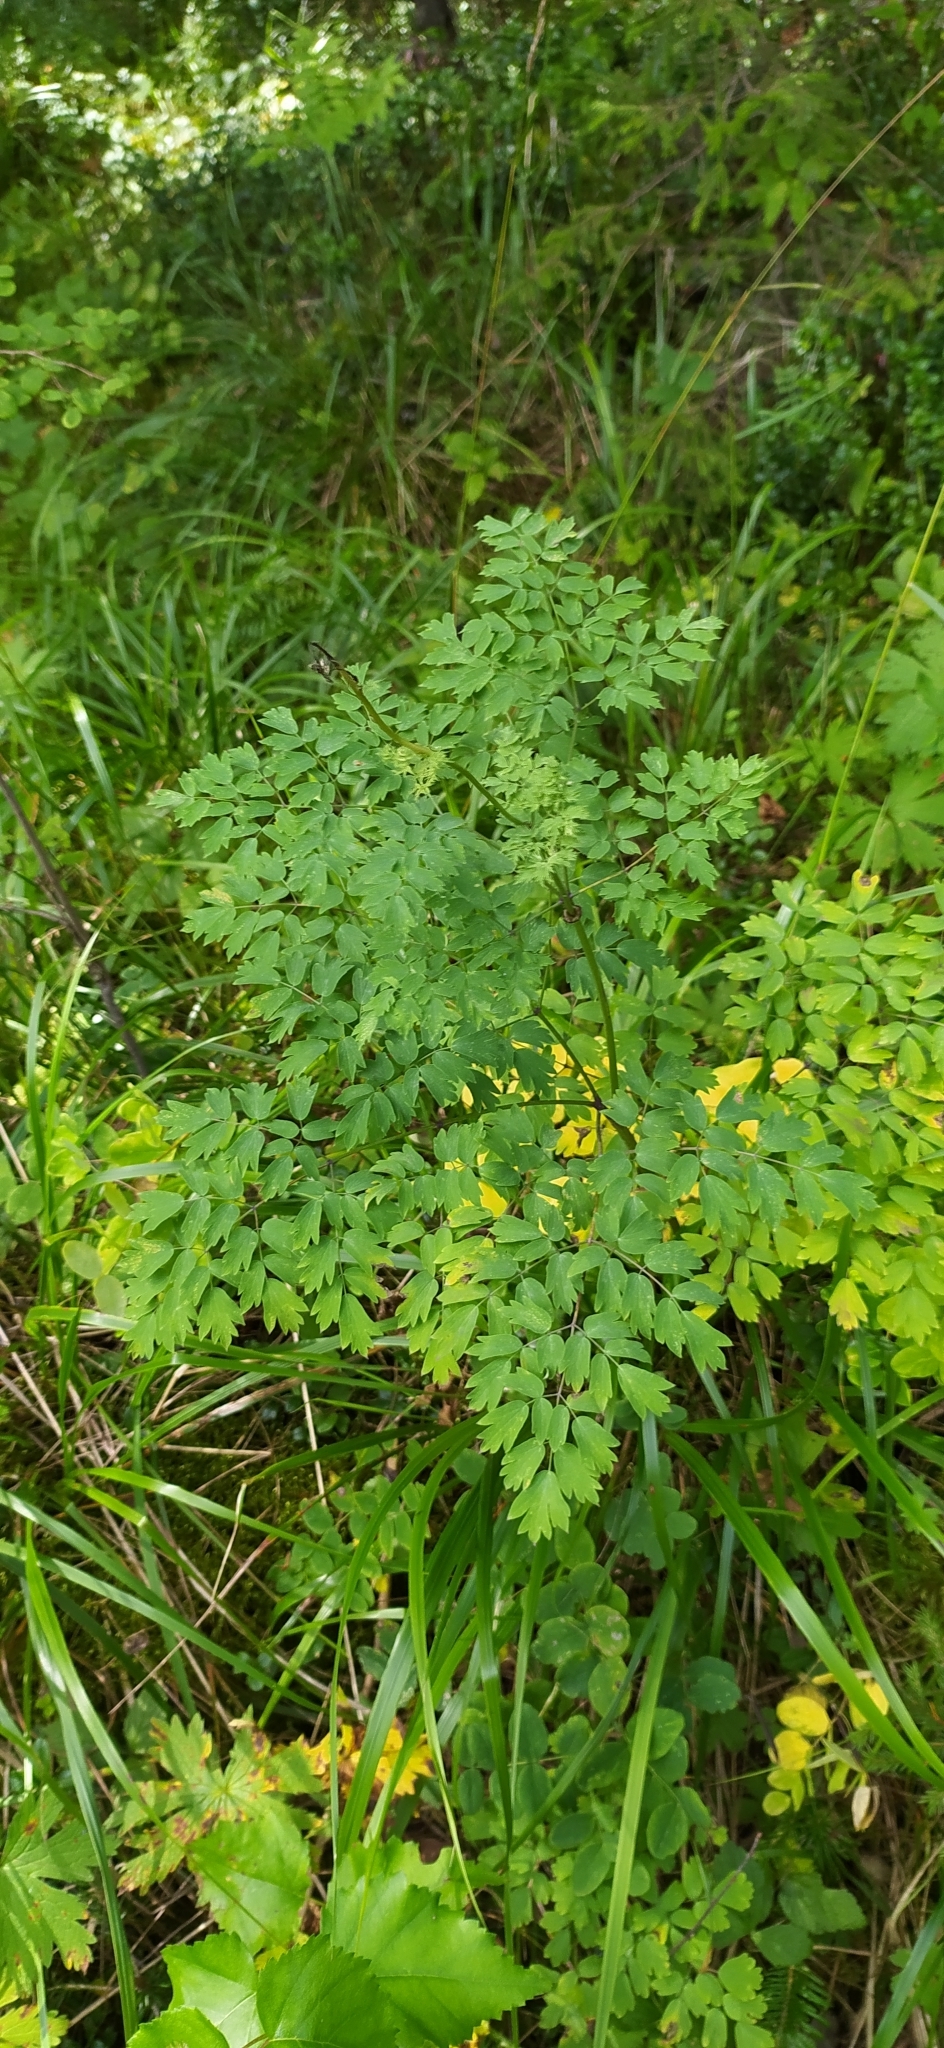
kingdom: Plantae
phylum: Tracheophyta
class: Magnoliopsida
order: Ranunculales
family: Ranunculaceae
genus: Thalictrum
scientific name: Thalictrum minus
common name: Lesser meadow-rue
